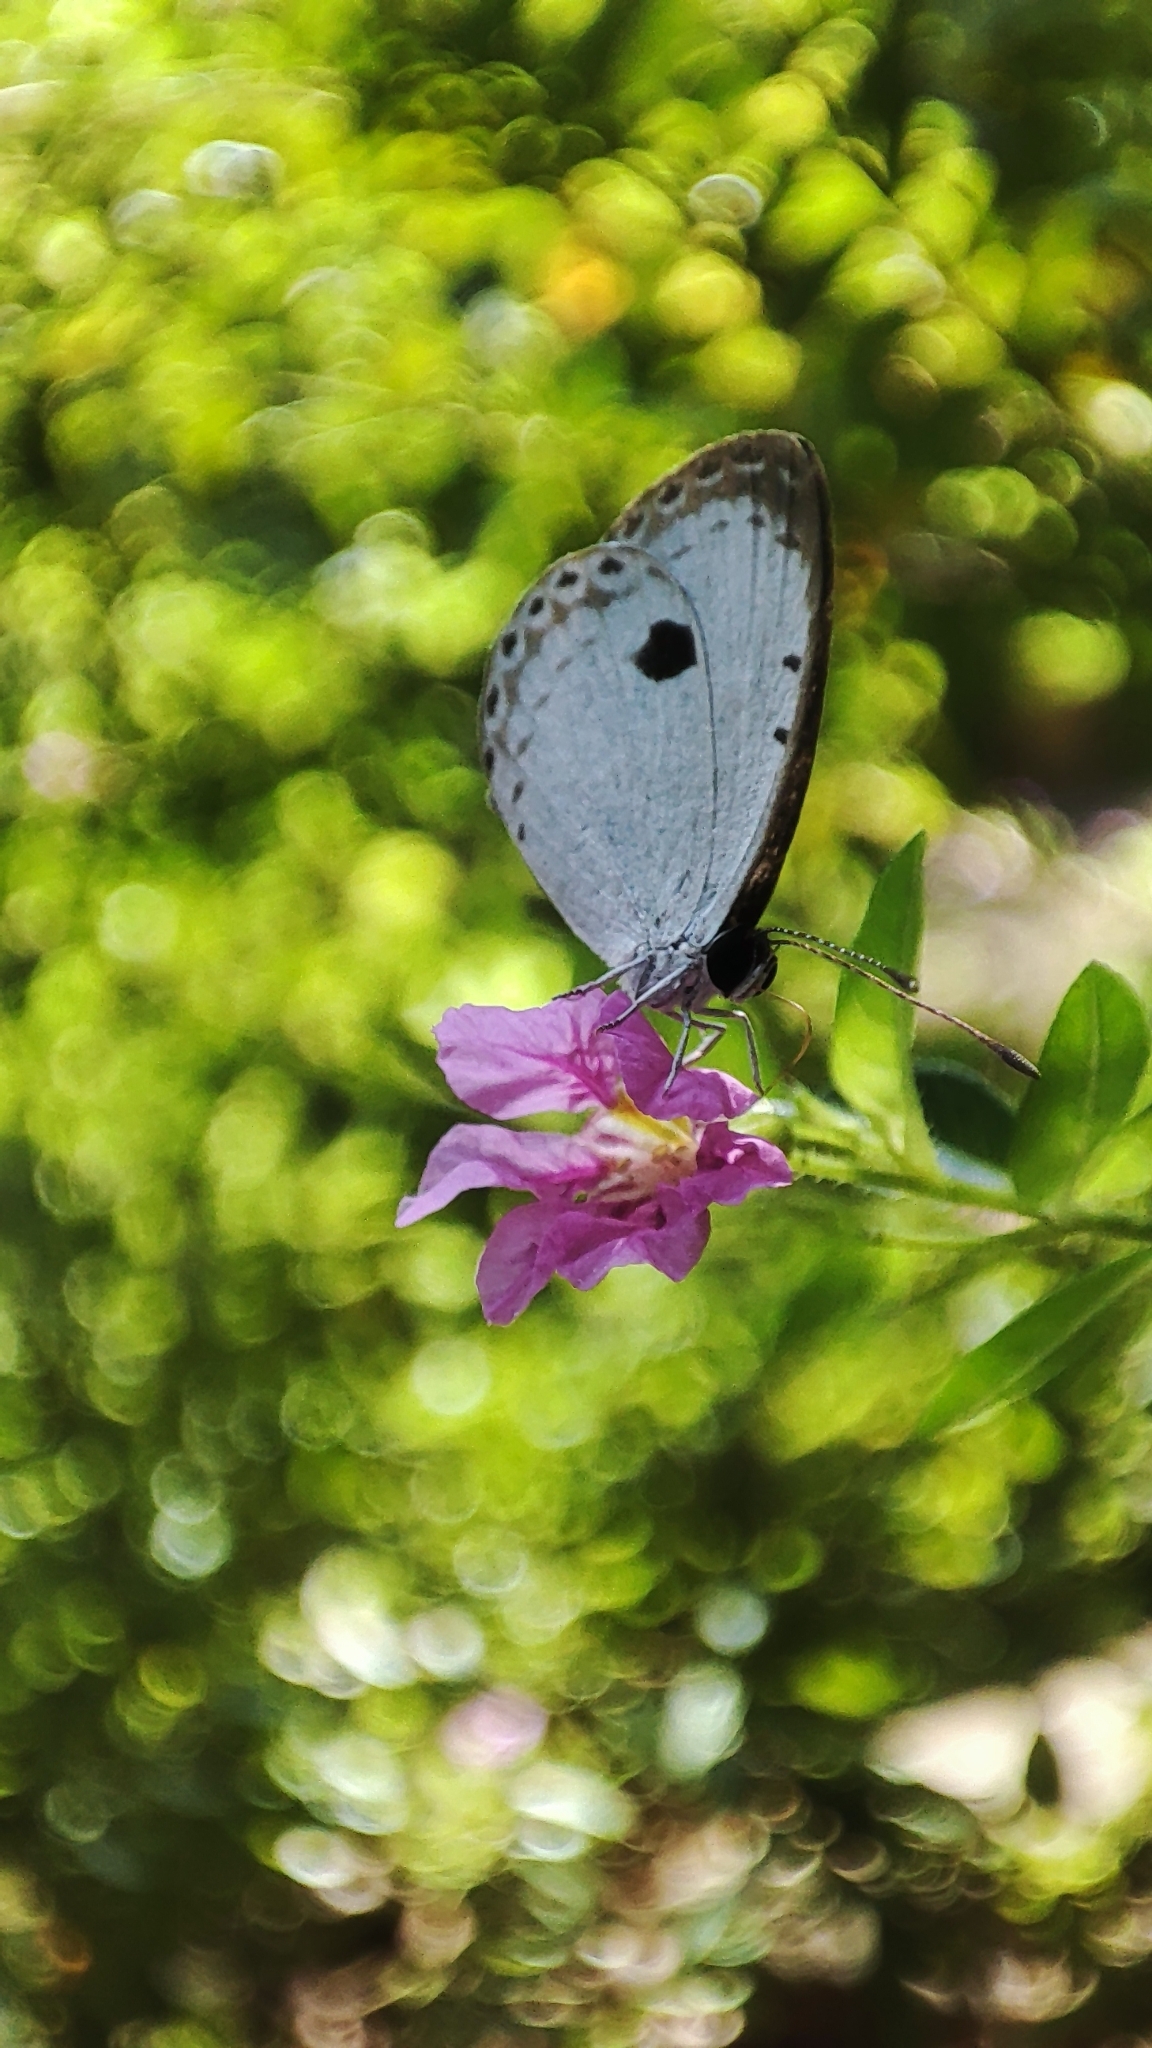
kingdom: Animalia
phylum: Arthropoda
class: Insecta
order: Lepidoptera
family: Lycaenidae
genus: Pithecops
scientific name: Pithecops corvus
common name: Forest quaker
